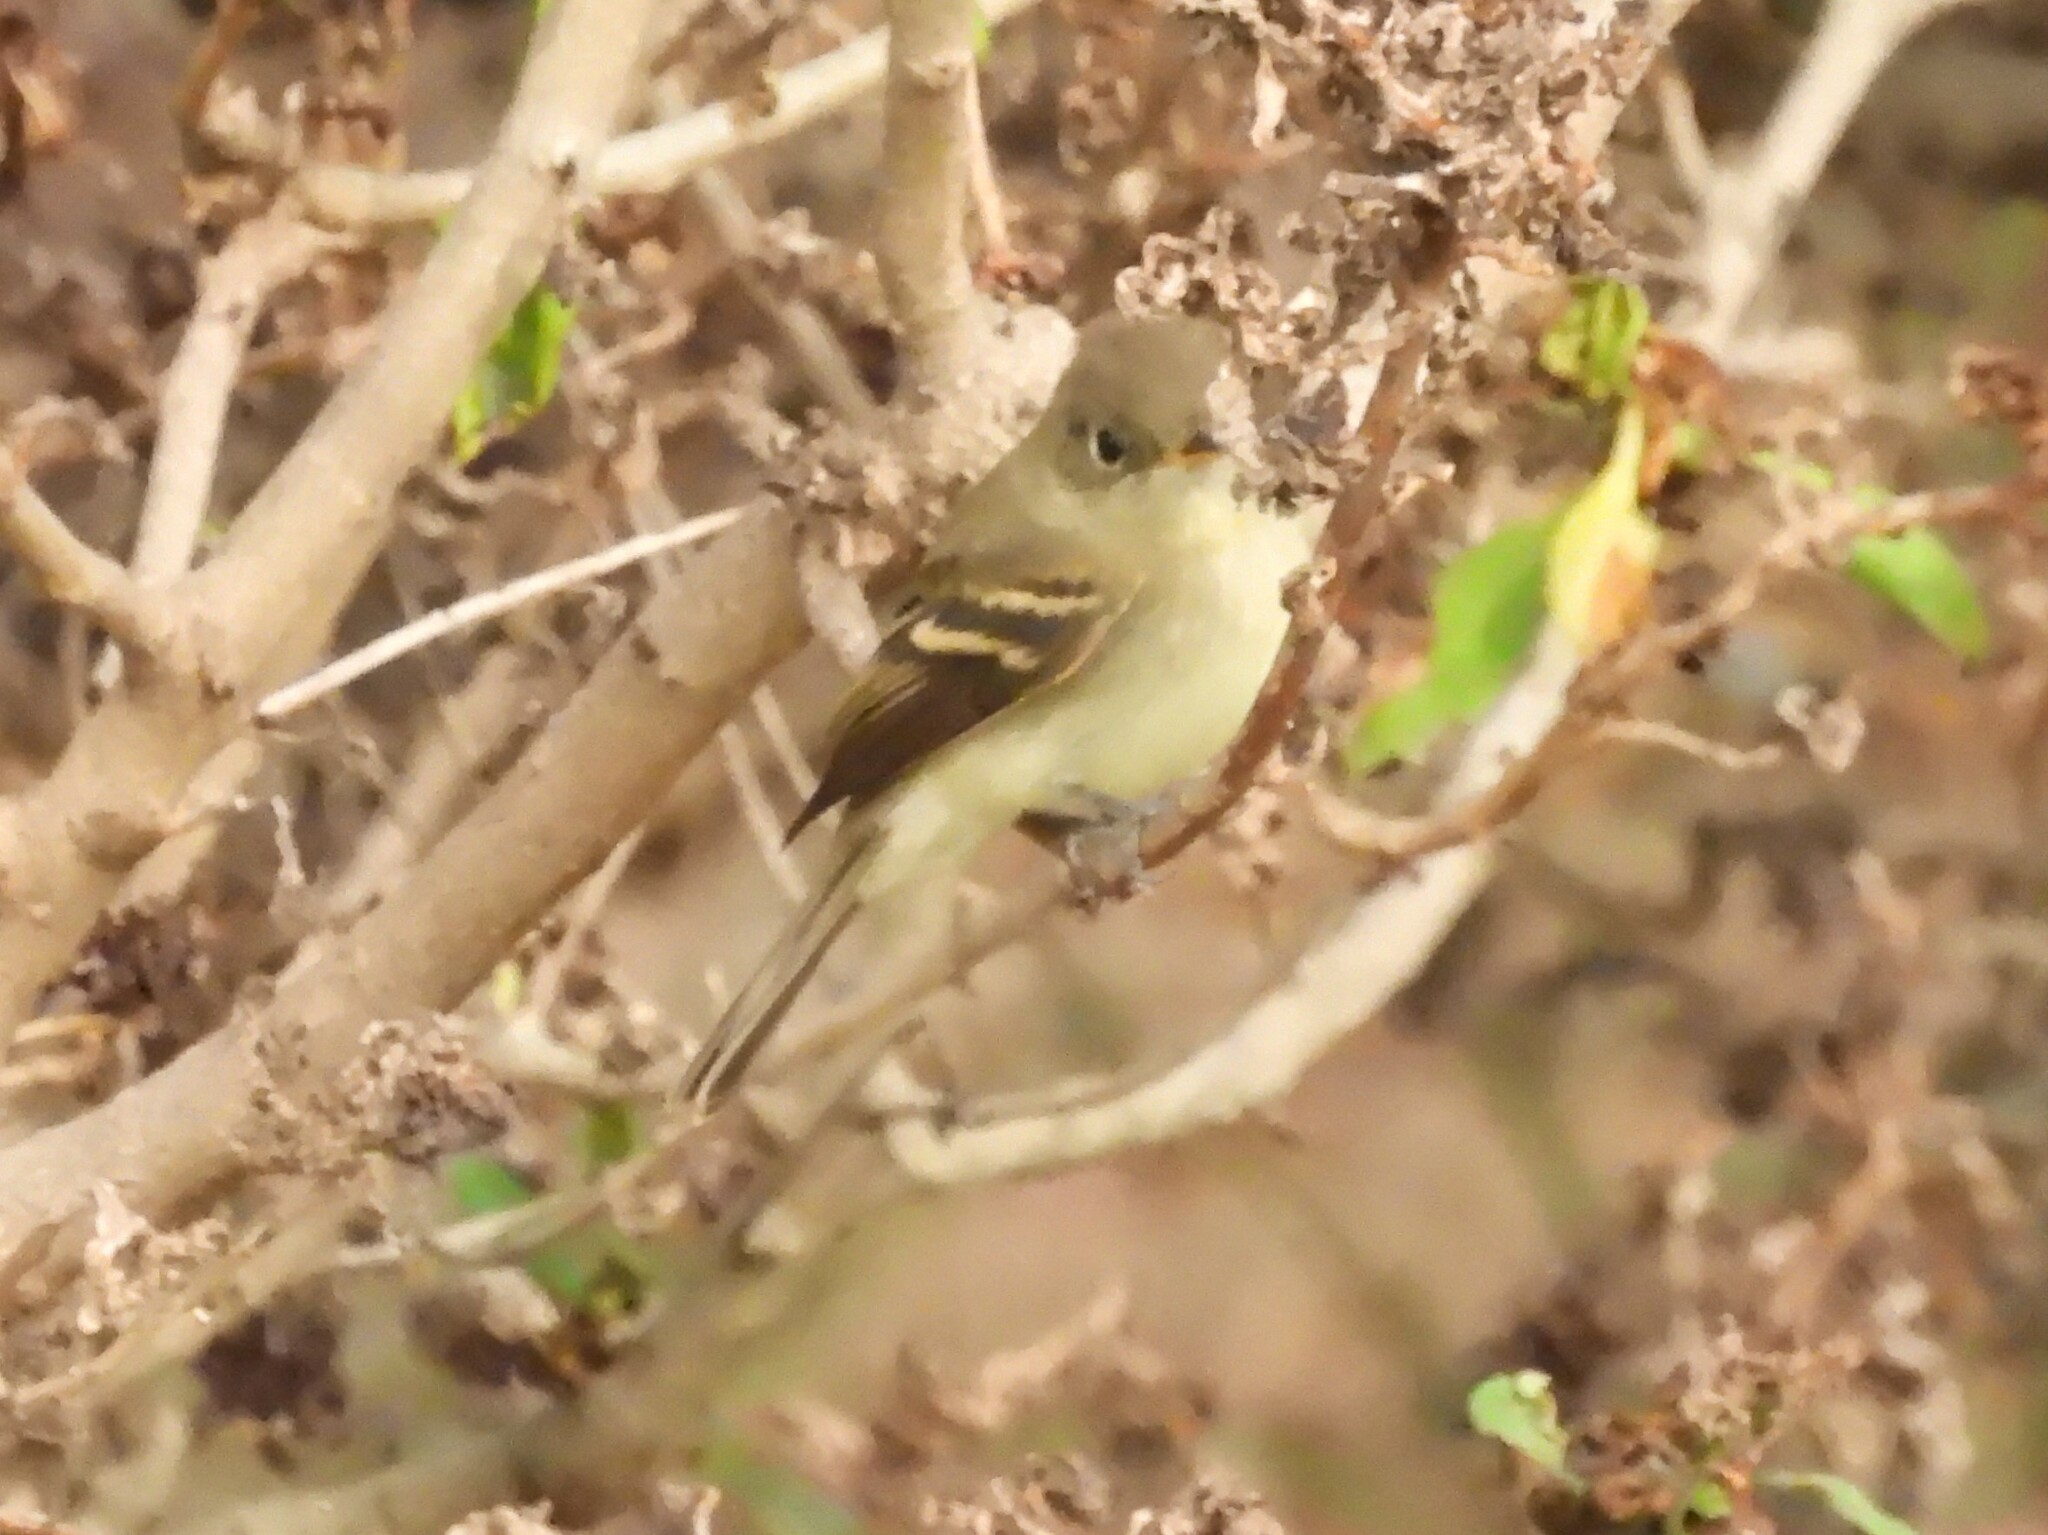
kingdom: Animalia
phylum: Chordata
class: Aves
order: Passeriformes
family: Tyrannidae
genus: Empidonax
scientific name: Empidonax difficilis
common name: Pacific-slope flycatcher
